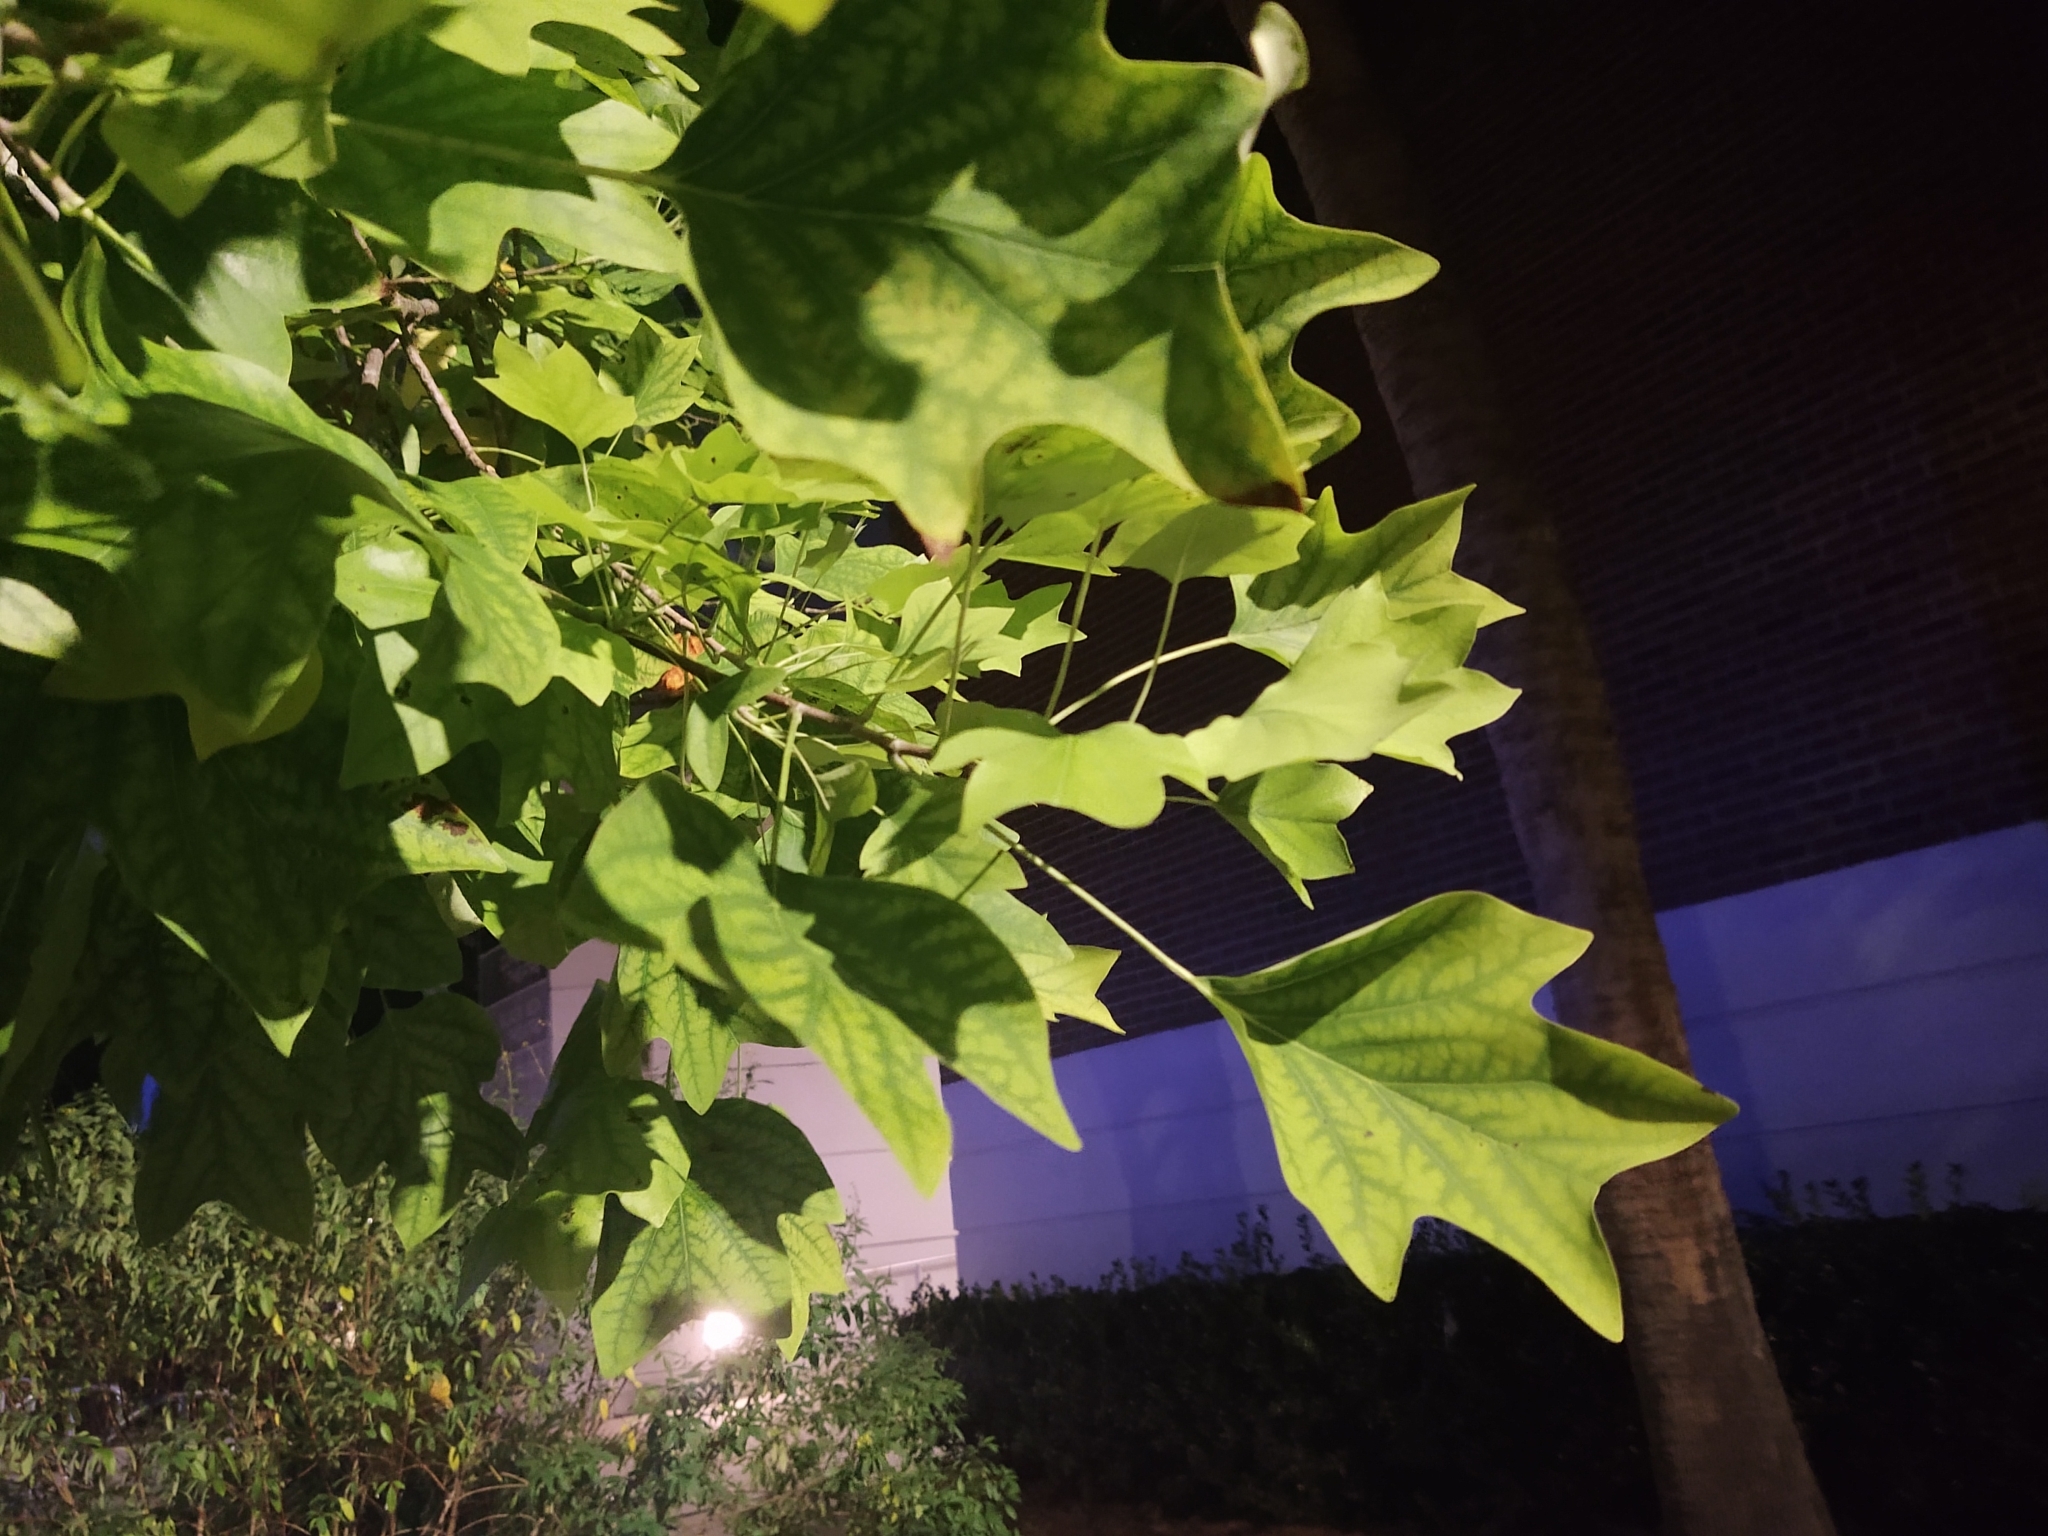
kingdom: Plantae
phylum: Tracheophyta
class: Magnoliopsida
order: Magnoliales
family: Magnoliaceae
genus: Liriodendron
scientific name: Liriodendron tulipifera
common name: Tulip tree
